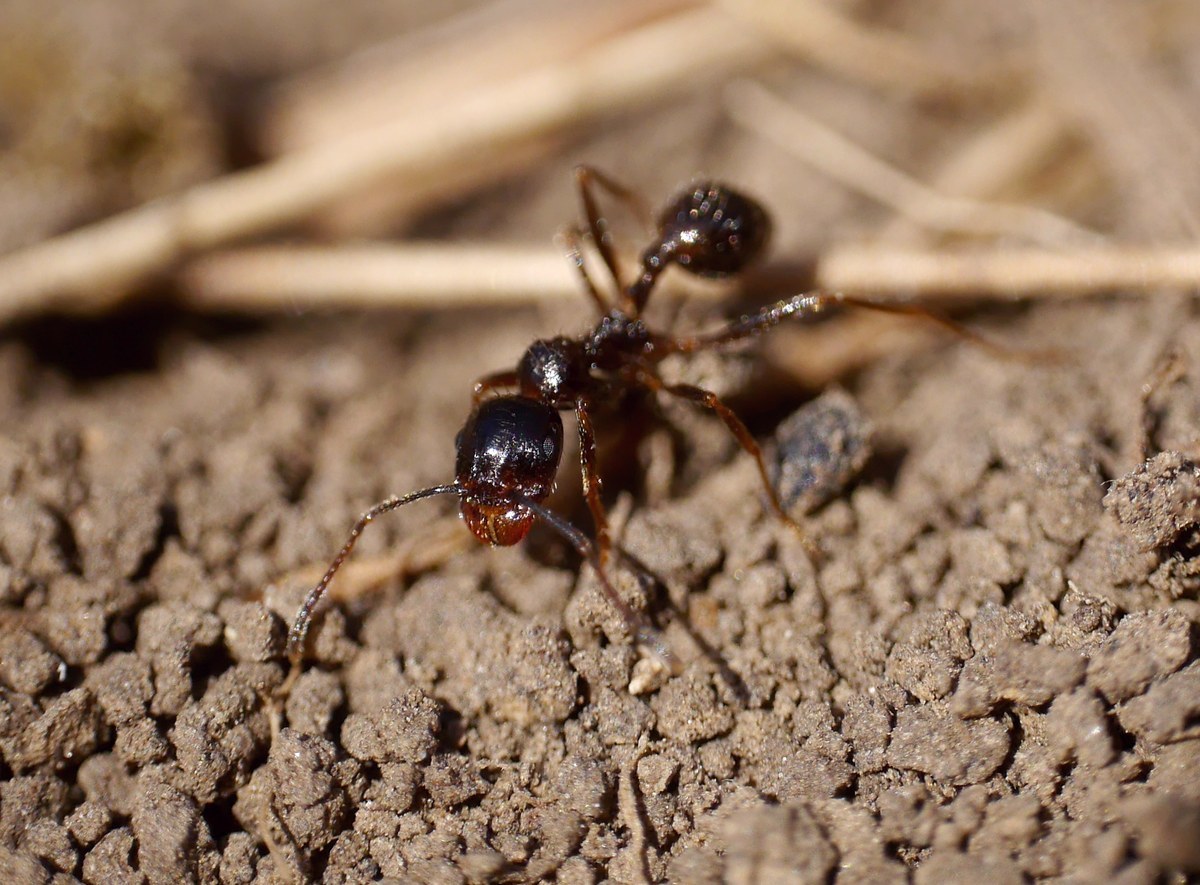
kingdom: Animalia
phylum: Arthropoda
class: Insecta
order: Hymenoptera
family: Formicidae
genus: Messor
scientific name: Messor structor
